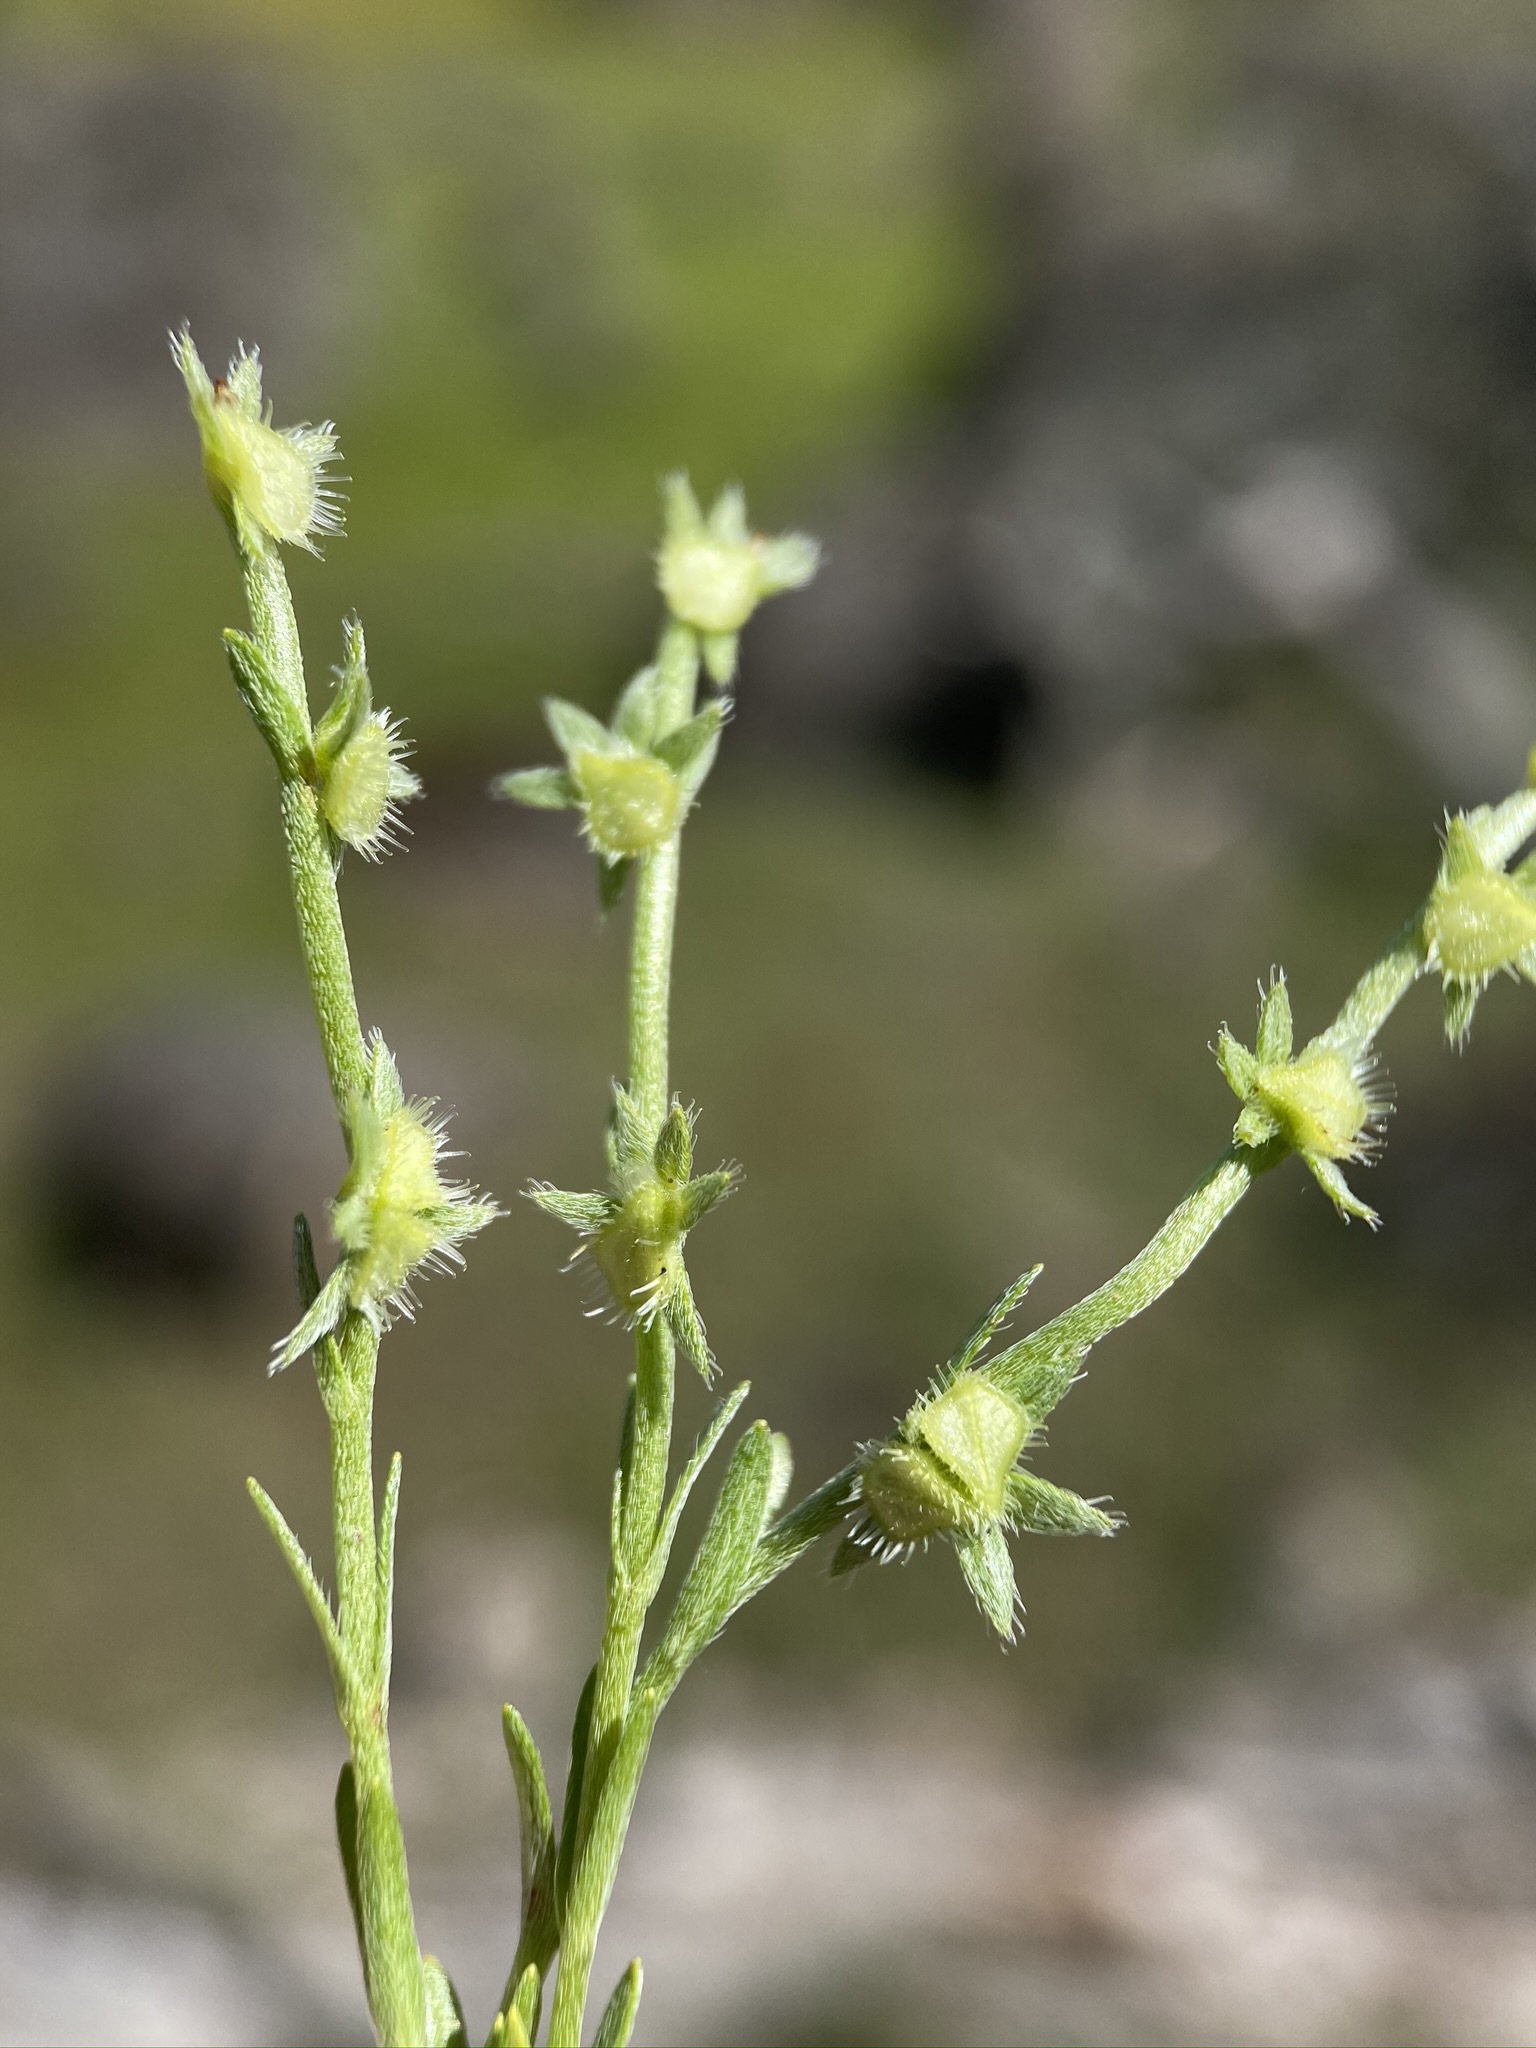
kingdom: Plantae
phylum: Tracheophyta
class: Magnoliopsida
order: Boraginales
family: Boraginaceae
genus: Pectocarya
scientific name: Pectocarya pusilla
